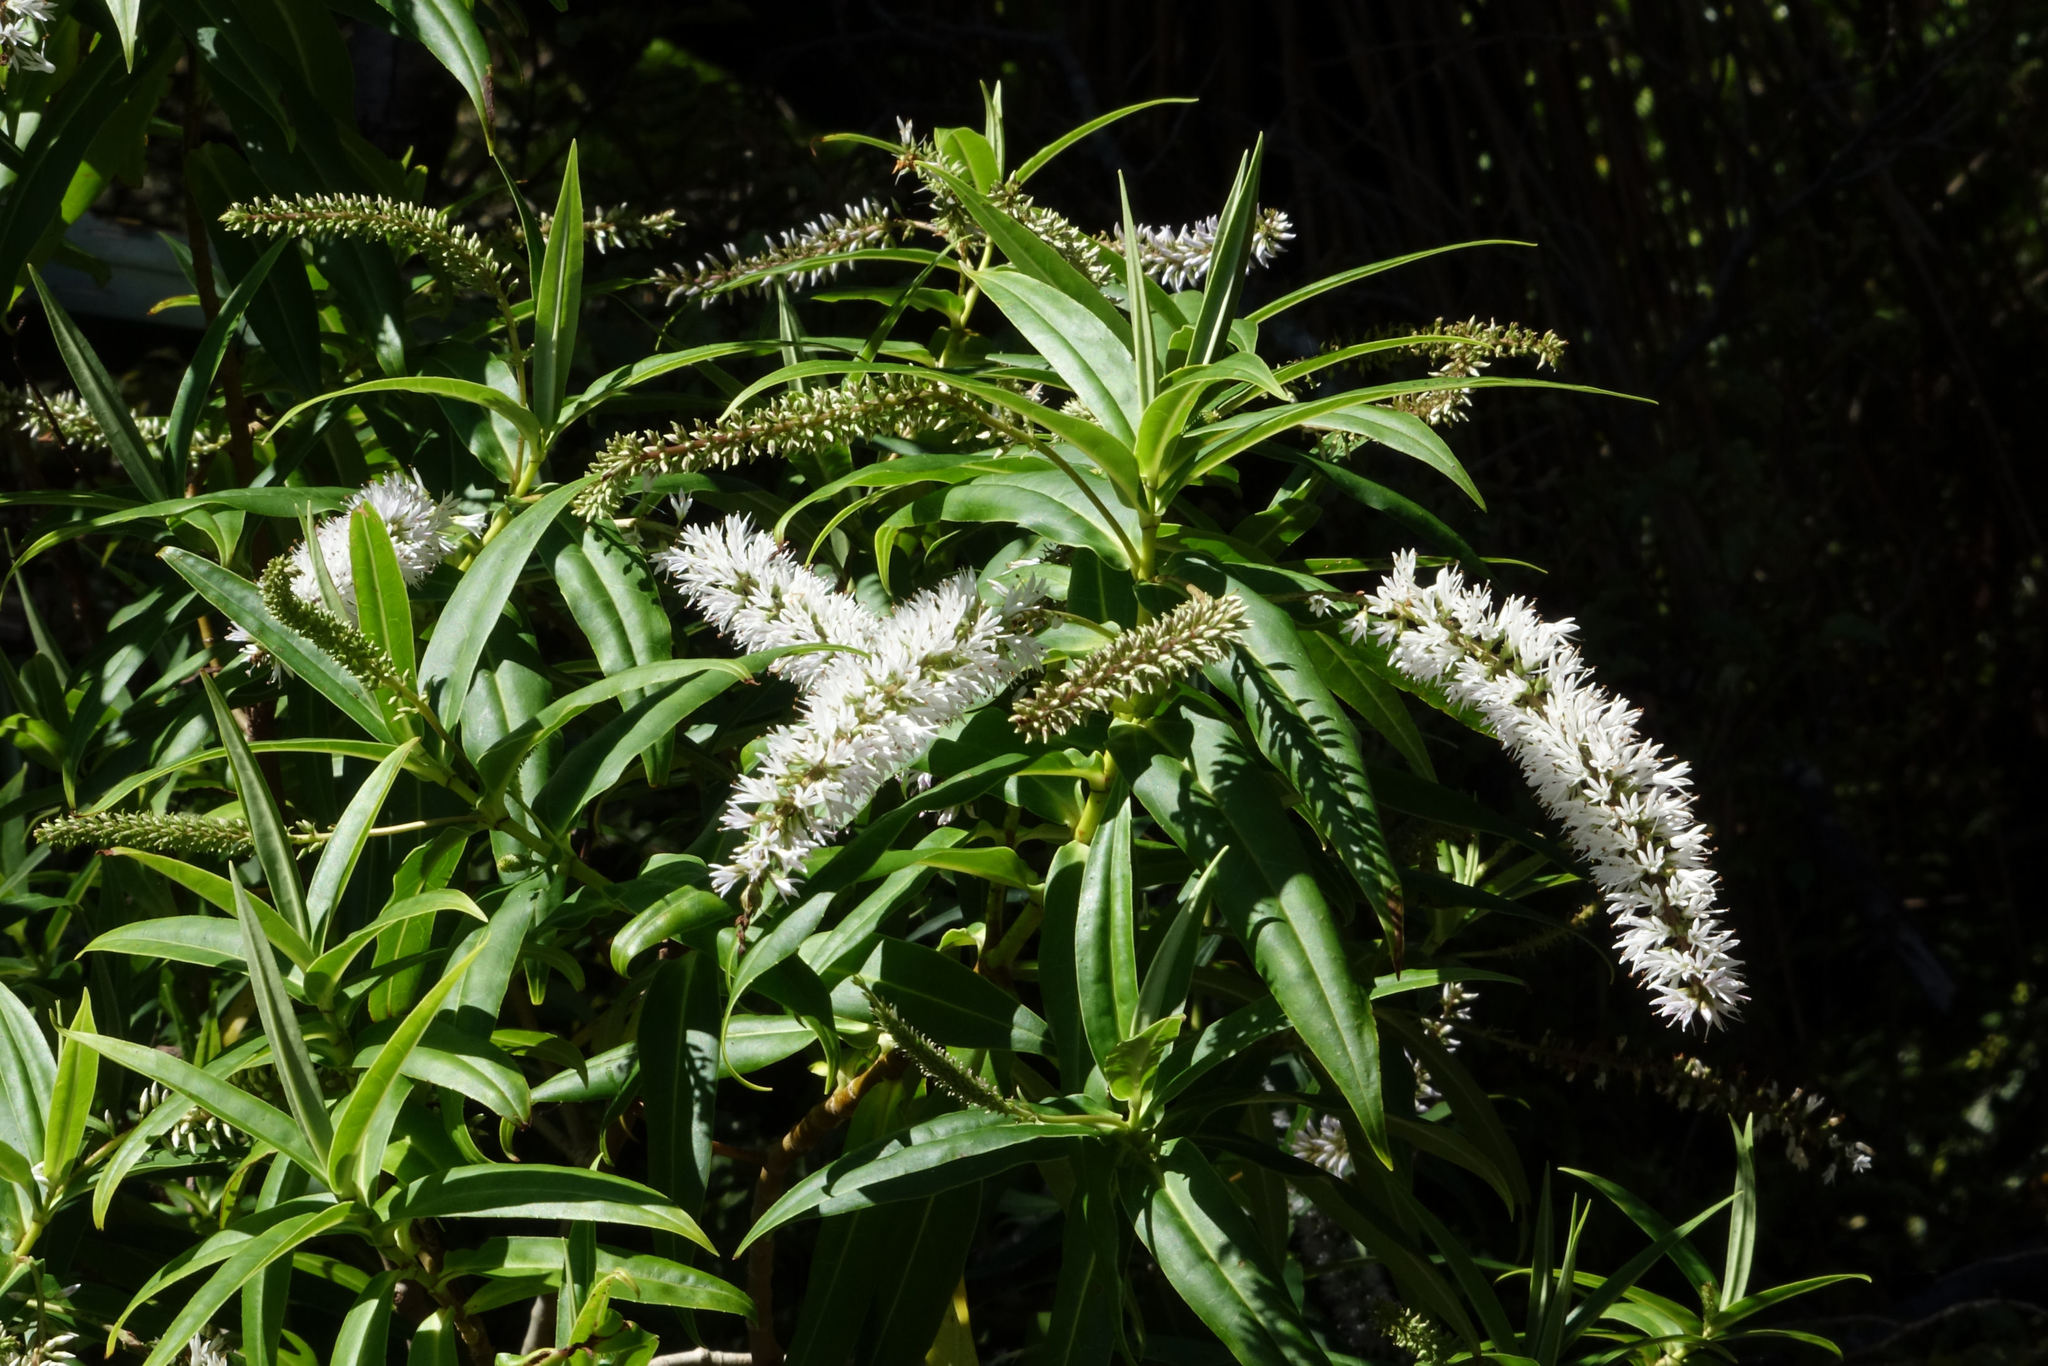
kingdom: Plantae
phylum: Tracheophyta
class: Magnoliopsida
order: Lamiales
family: Plantaginaceae
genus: Veronica
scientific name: Veronica salicifolia
